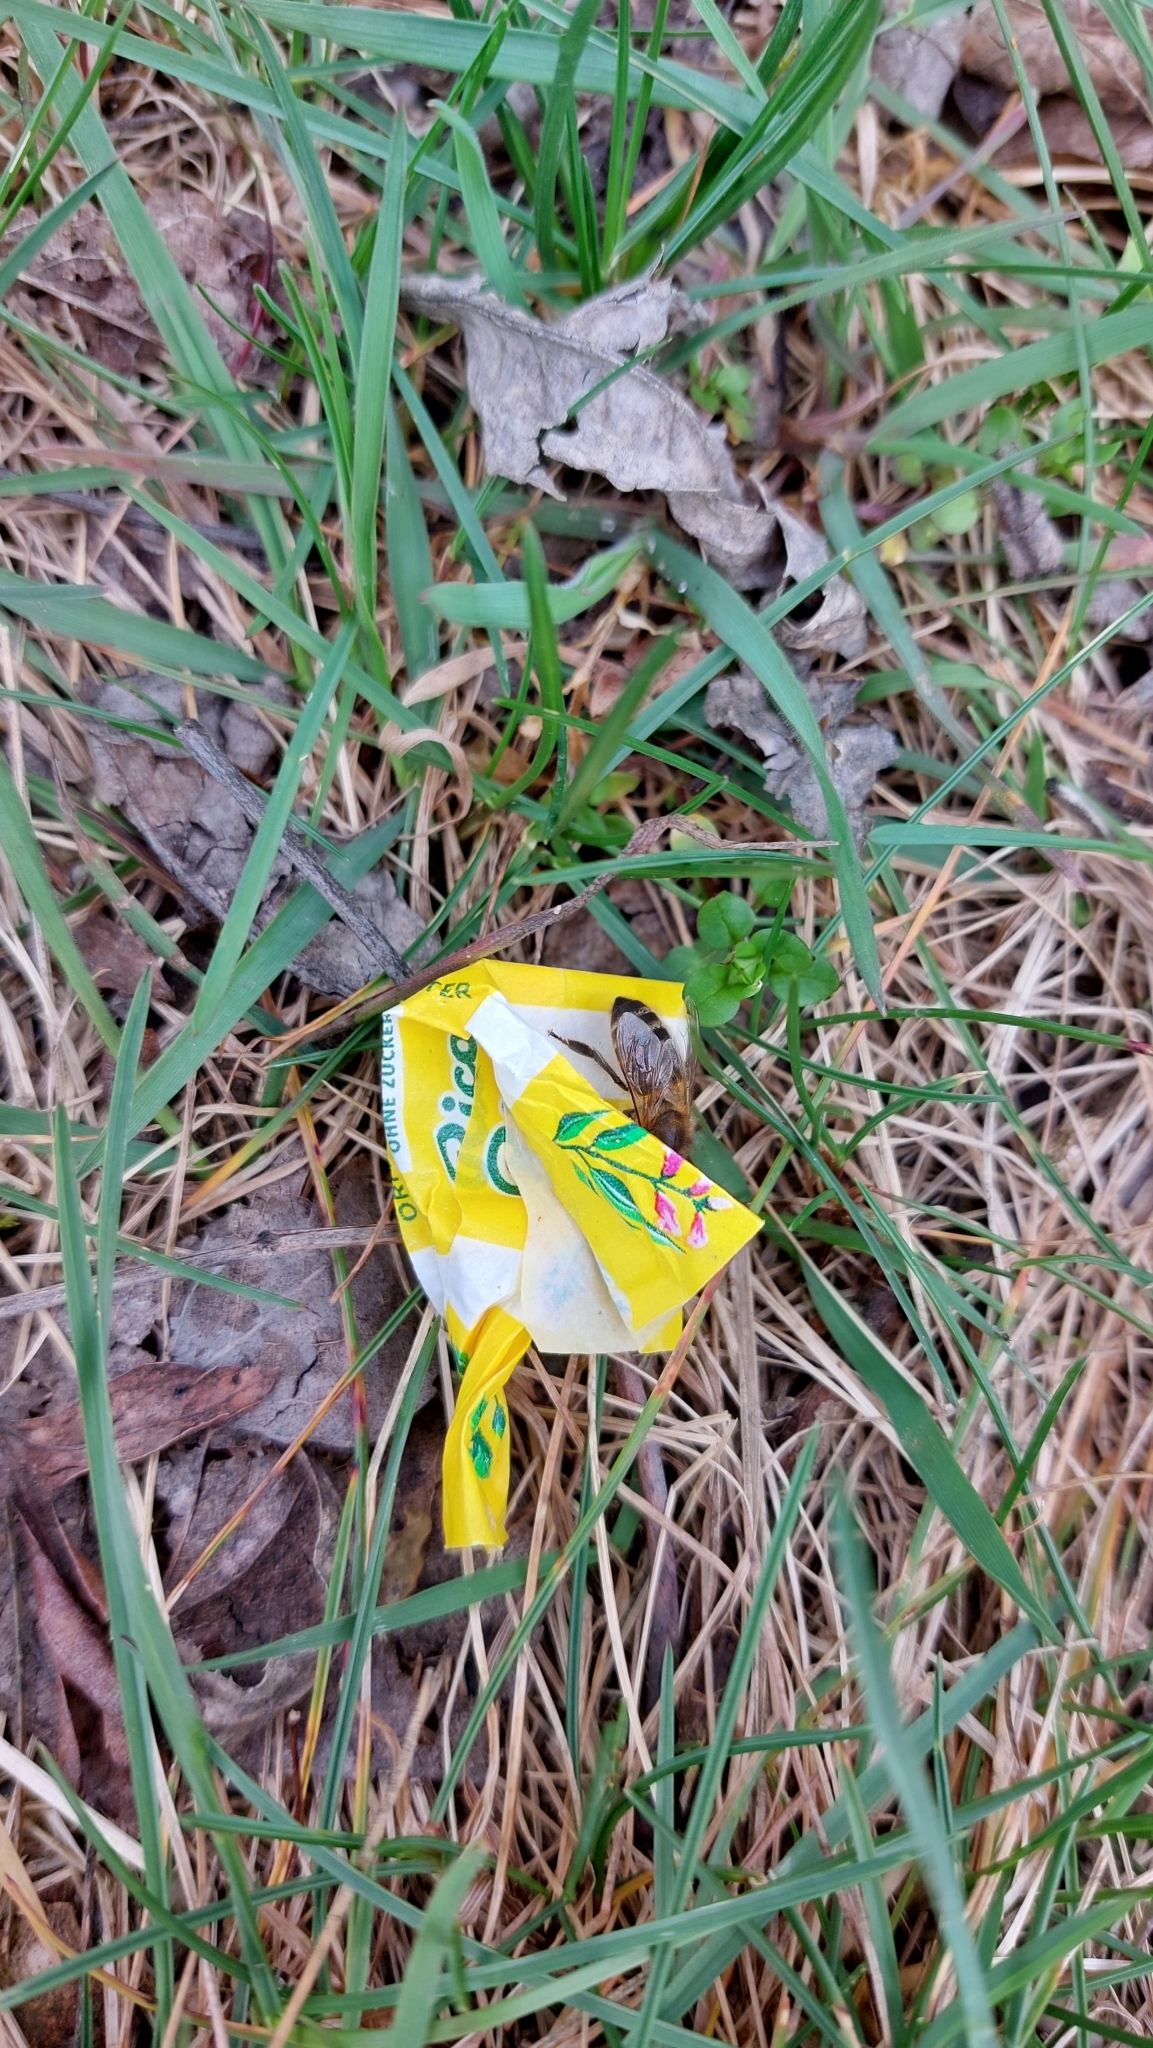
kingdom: Animalia
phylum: Arthropoda
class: Insecta
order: Hymenoptera
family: Apidae
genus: Apis
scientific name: Apis mellifera
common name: Honey bee
